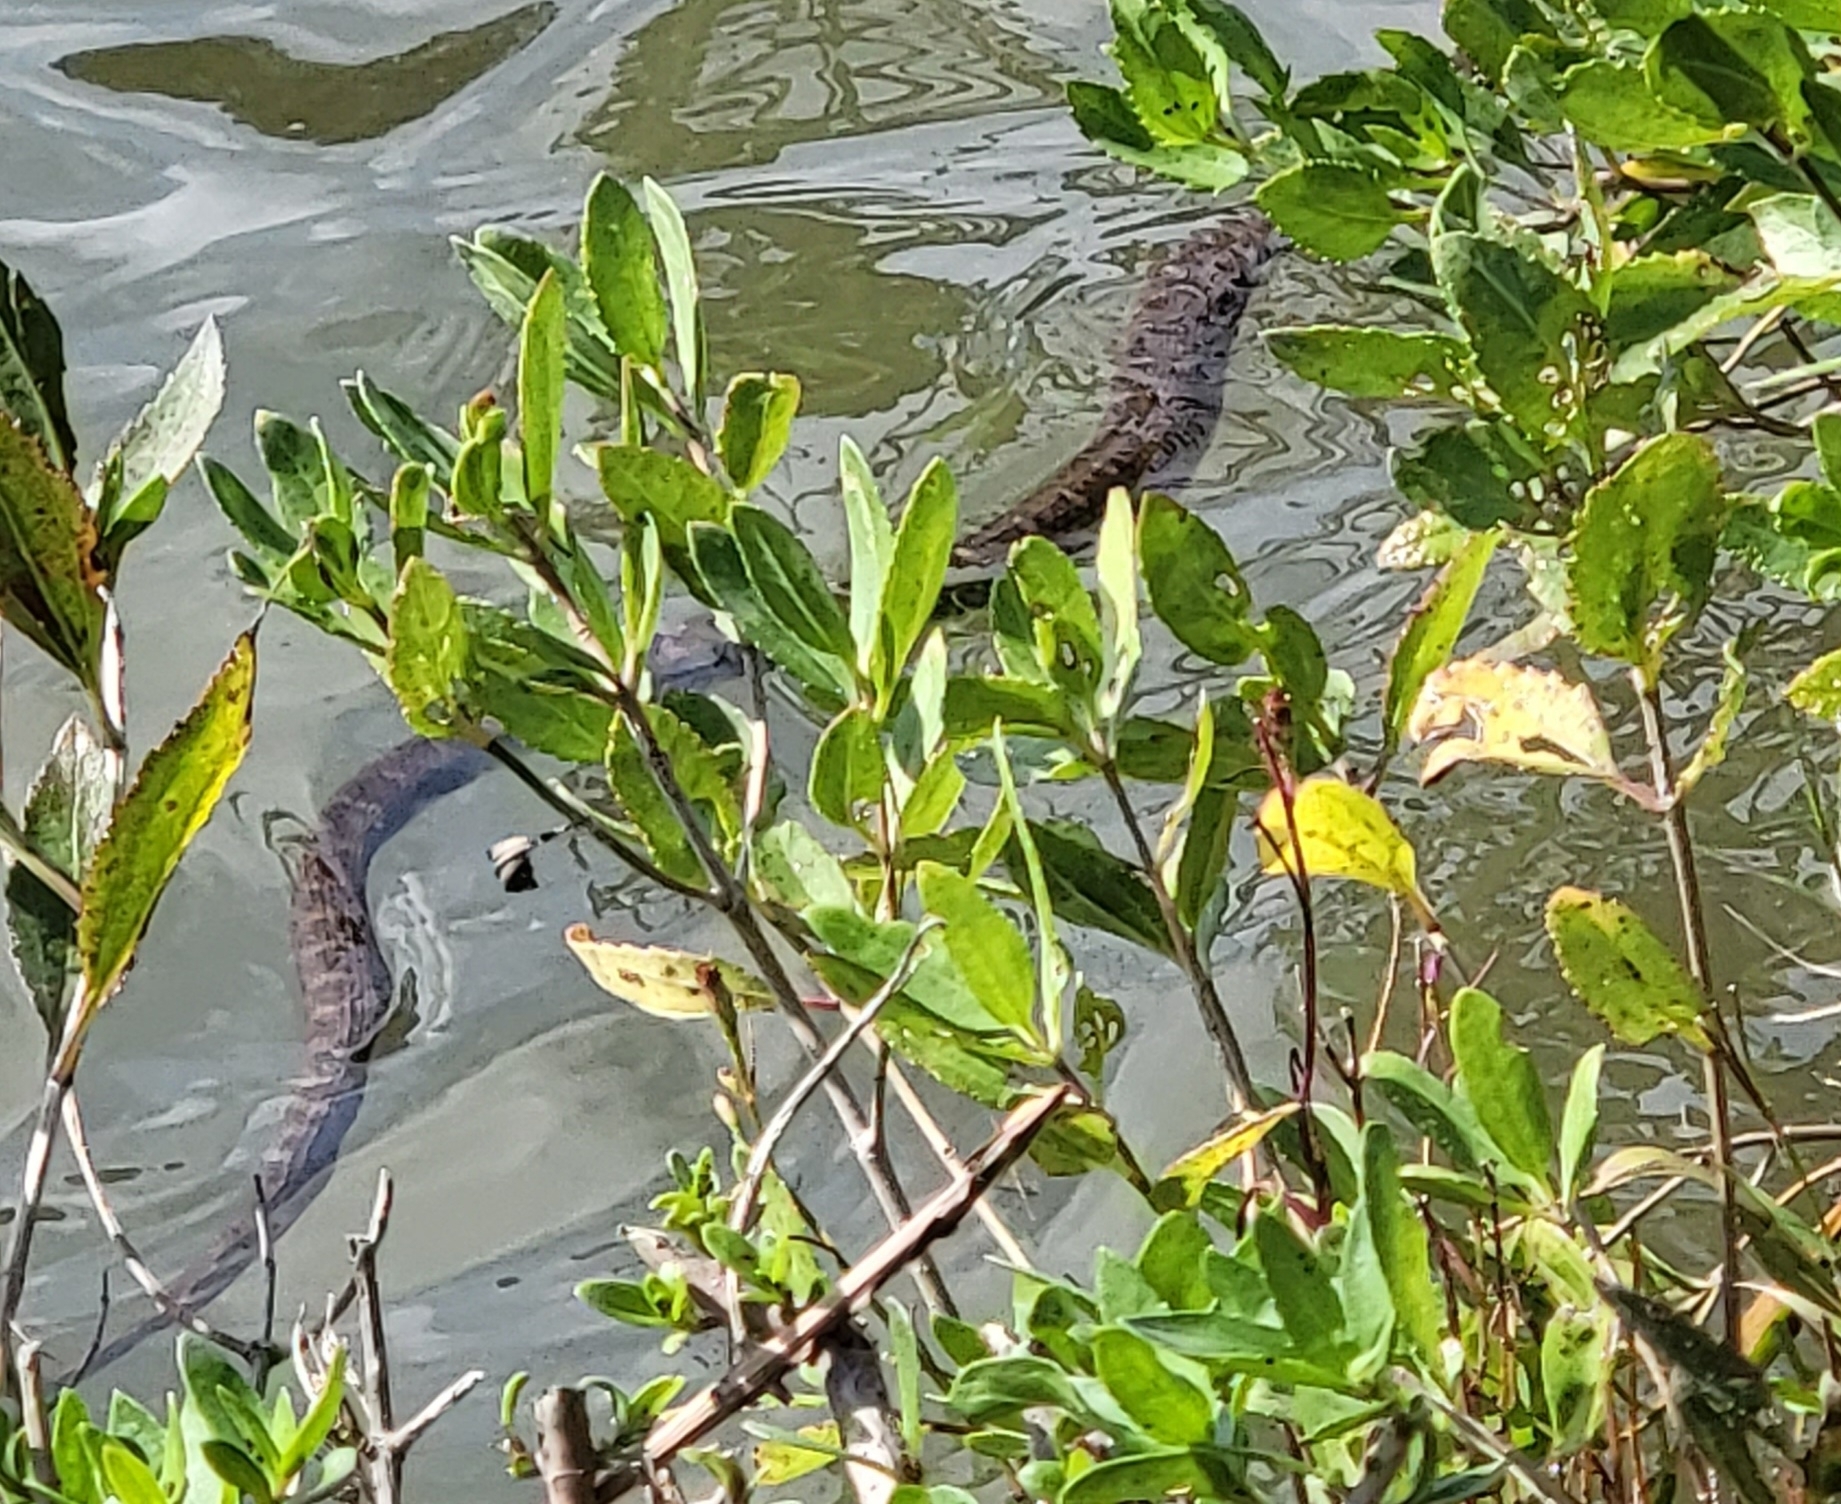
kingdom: Animalia
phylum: Chordata
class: Squamata
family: Colubridae
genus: Nerodia
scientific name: Nerodia sipedon
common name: Northern water snake
